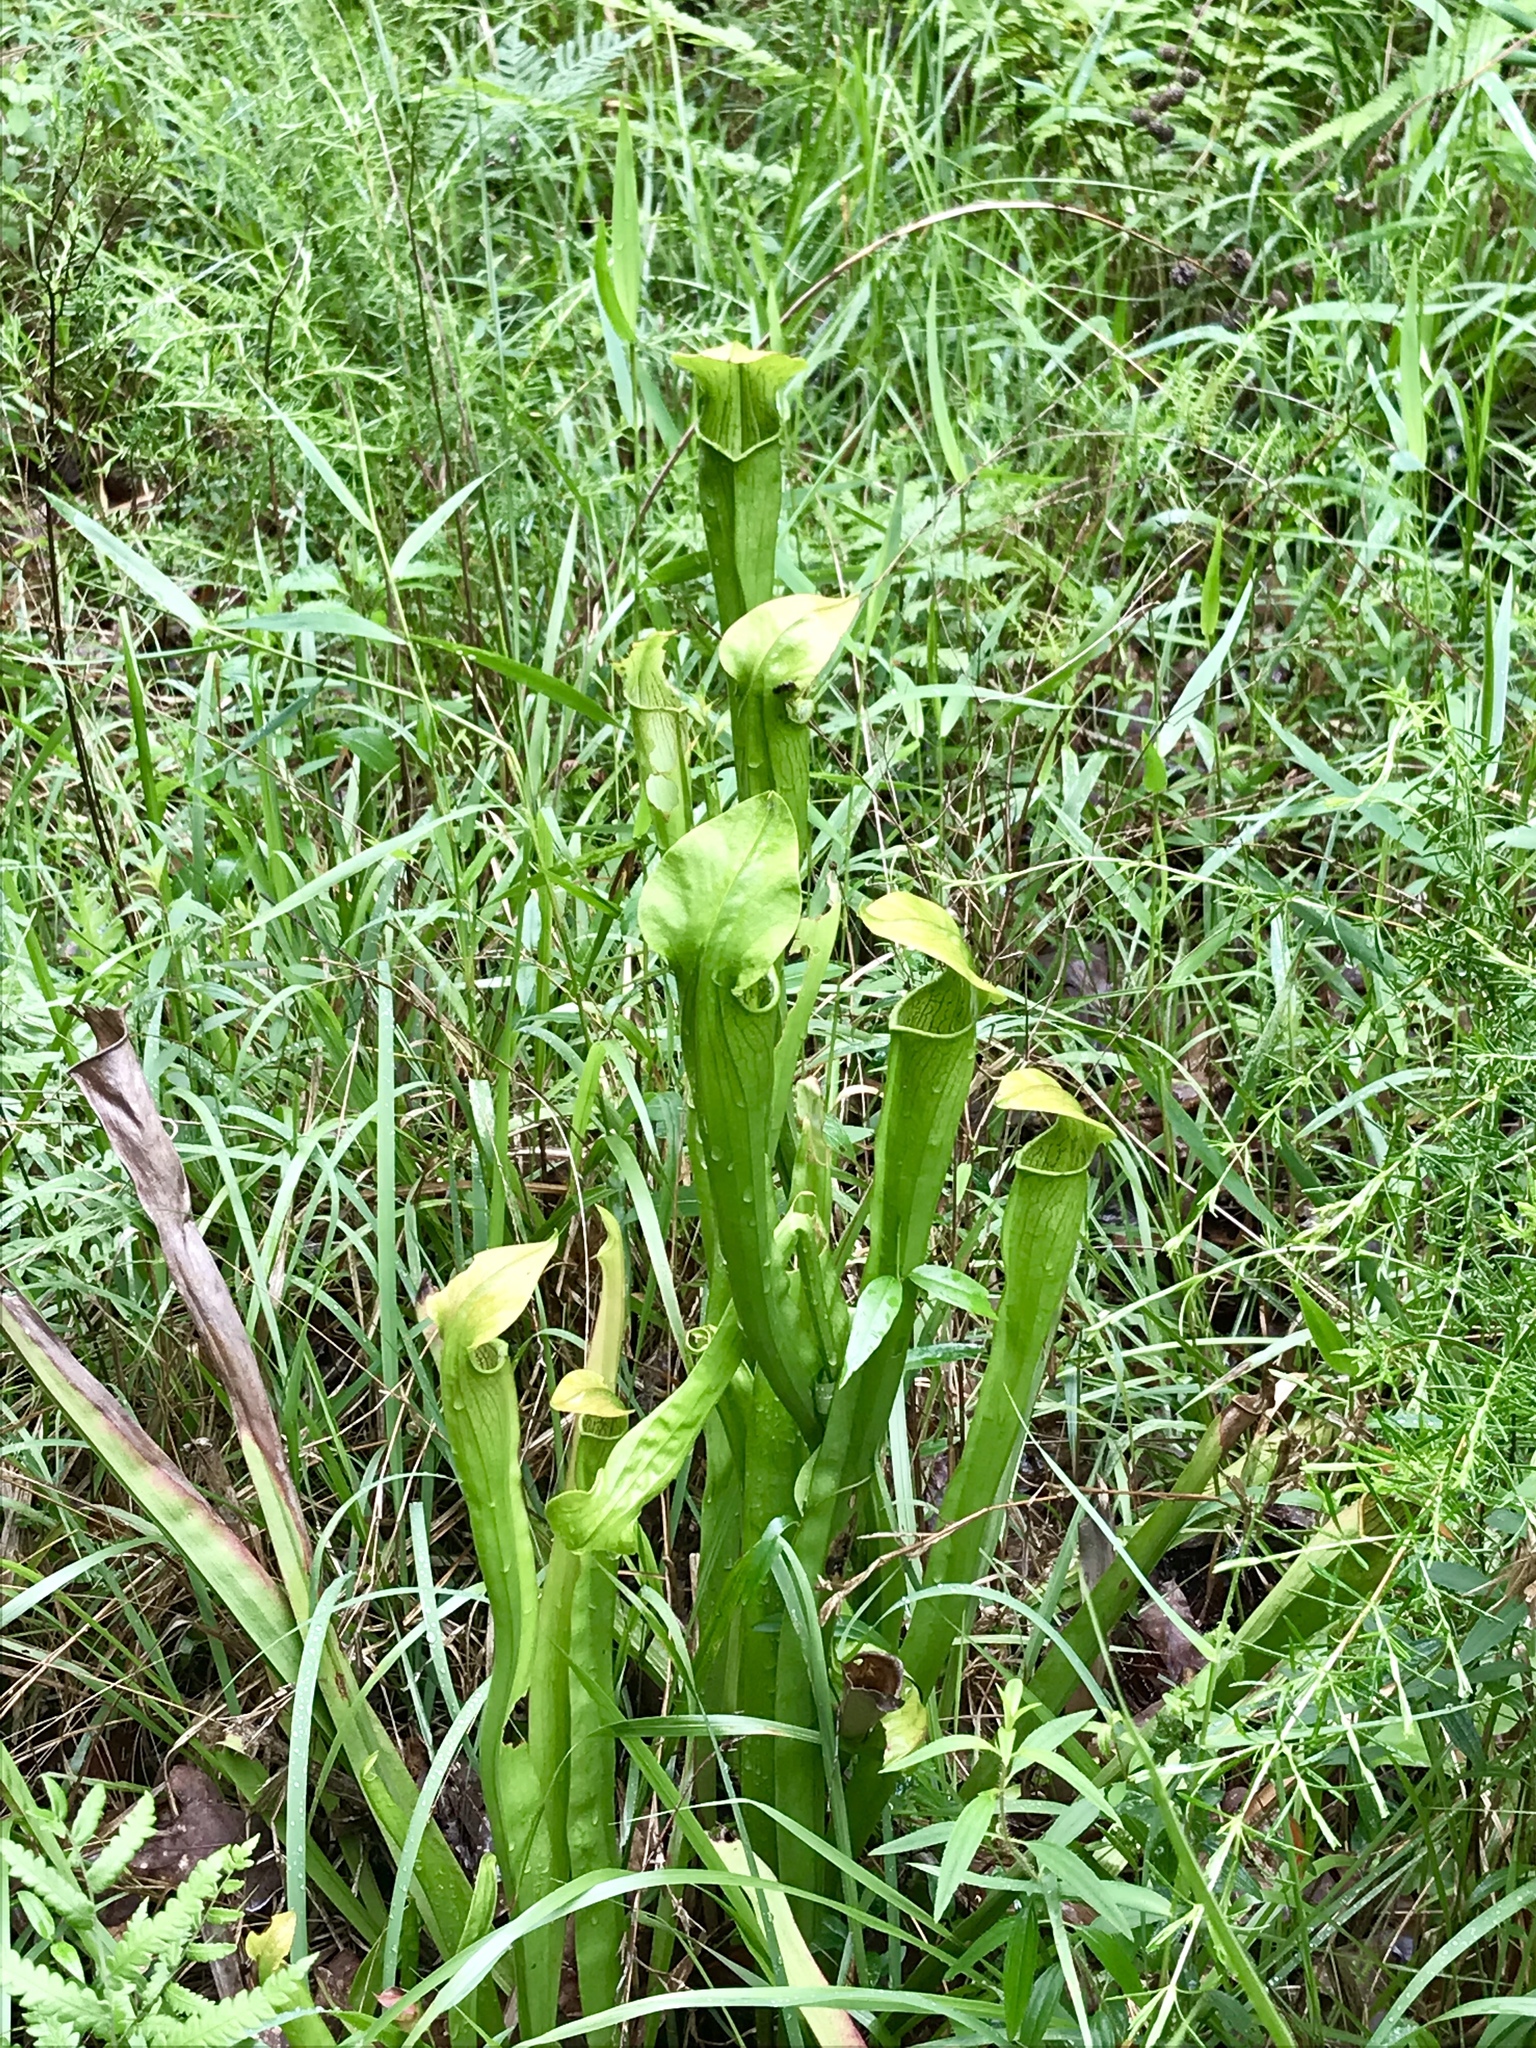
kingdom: Plantae
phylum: Tracheophyta
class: Magnoliopsida
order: Ericales
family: Sarraceniaceae
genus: Sarracenia
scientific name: Sarracenia alata
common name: Yellow trumpets
